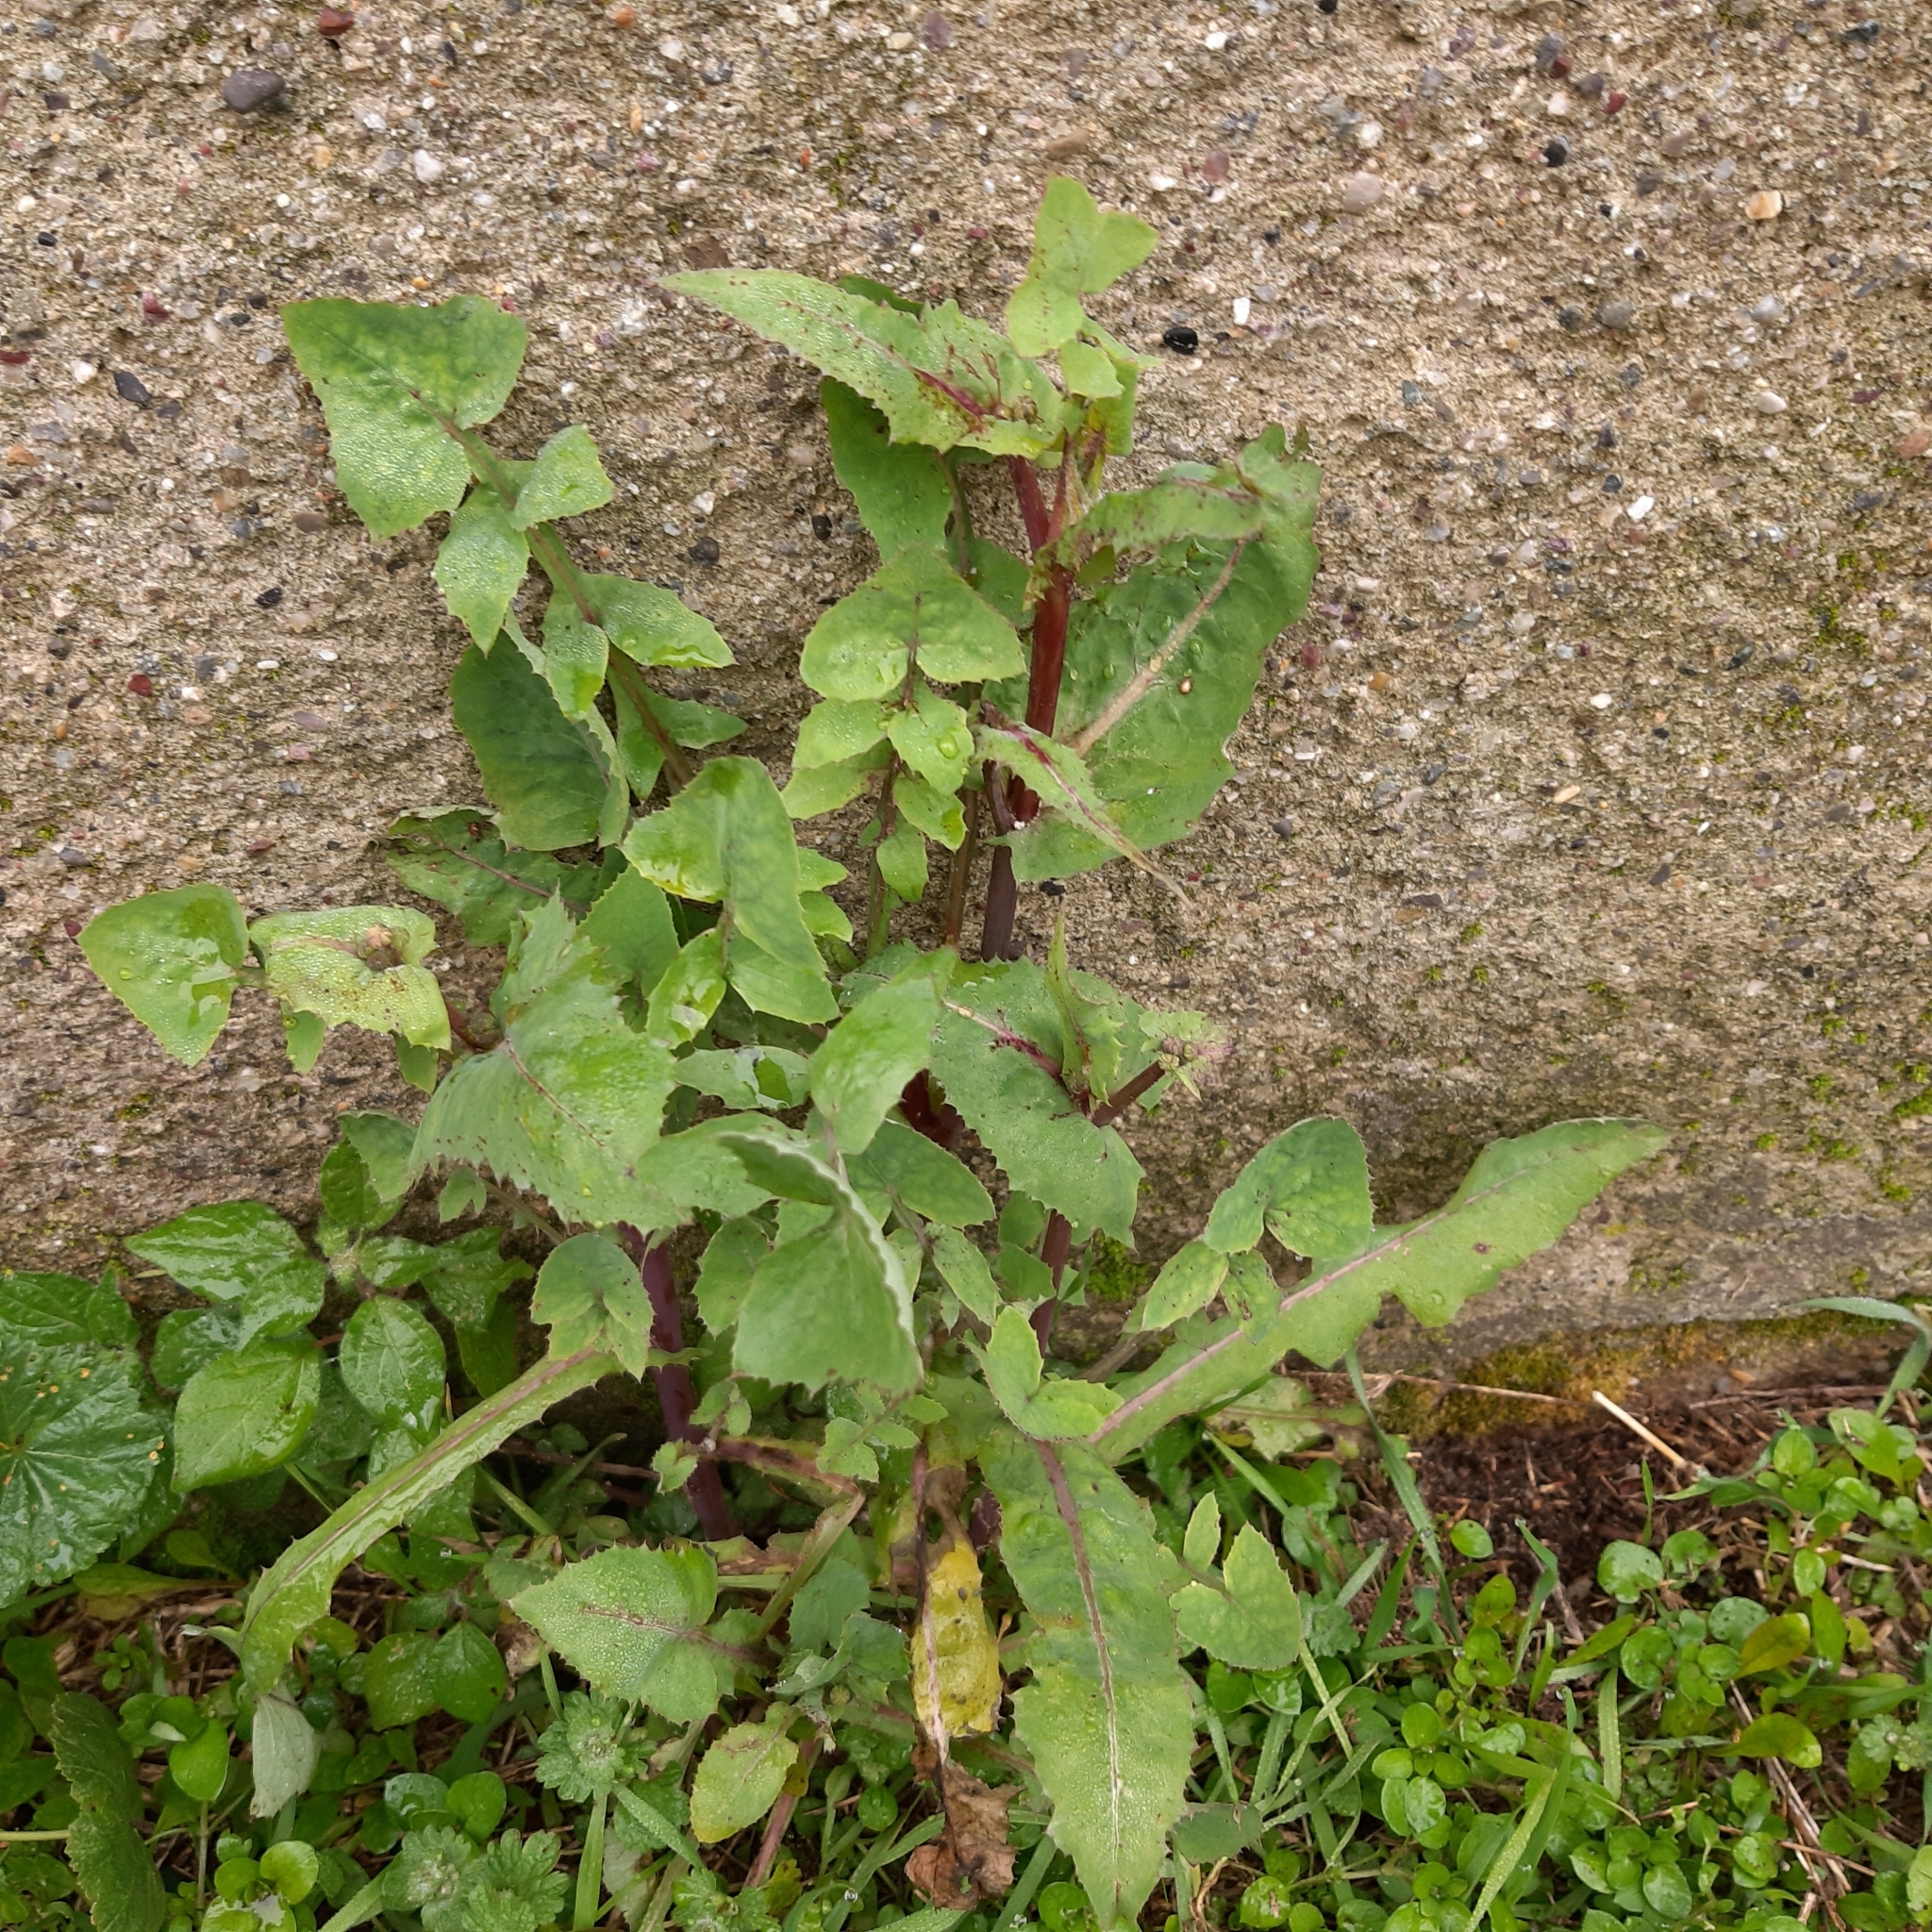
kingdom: Plantae
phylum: Tracheophyta
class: Magnoliopsida
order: Asterales
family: Asteraceae
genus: Sonchus
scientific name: Sonchus oleraceus
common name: Common sowthistle
